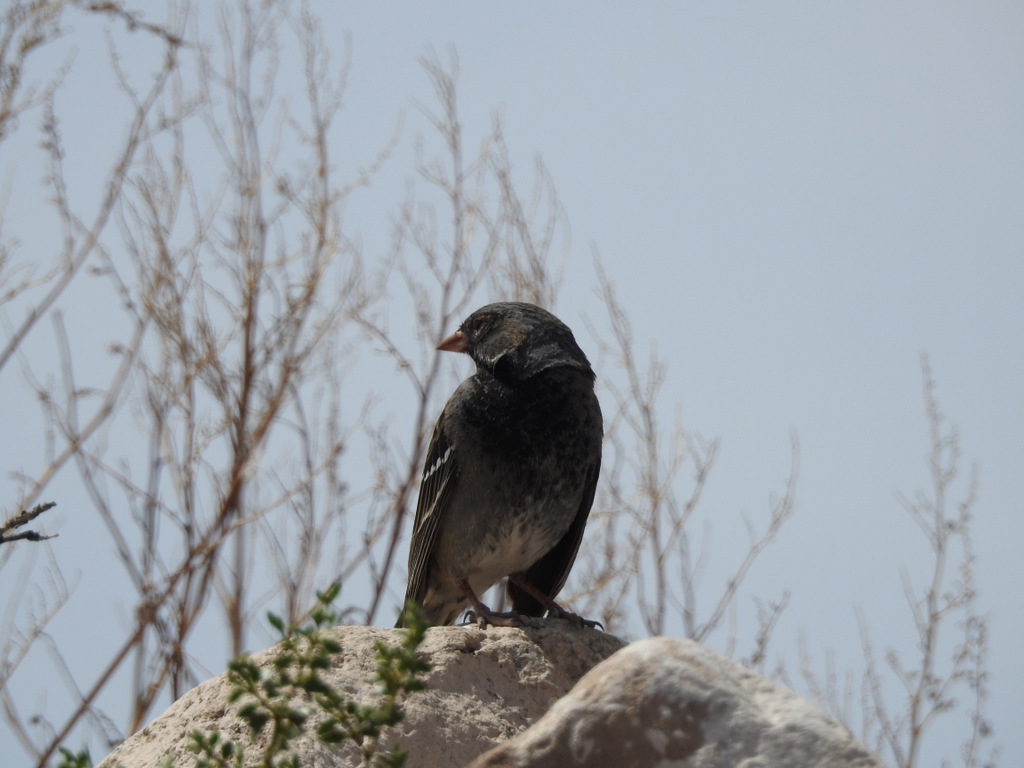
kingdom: Animalia
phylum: Chordata
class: Aves
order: Passeriformes
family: Thraupidae
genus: Rhopospina
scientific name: Rhopospina fruticeti
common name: Mourning sierra finch
